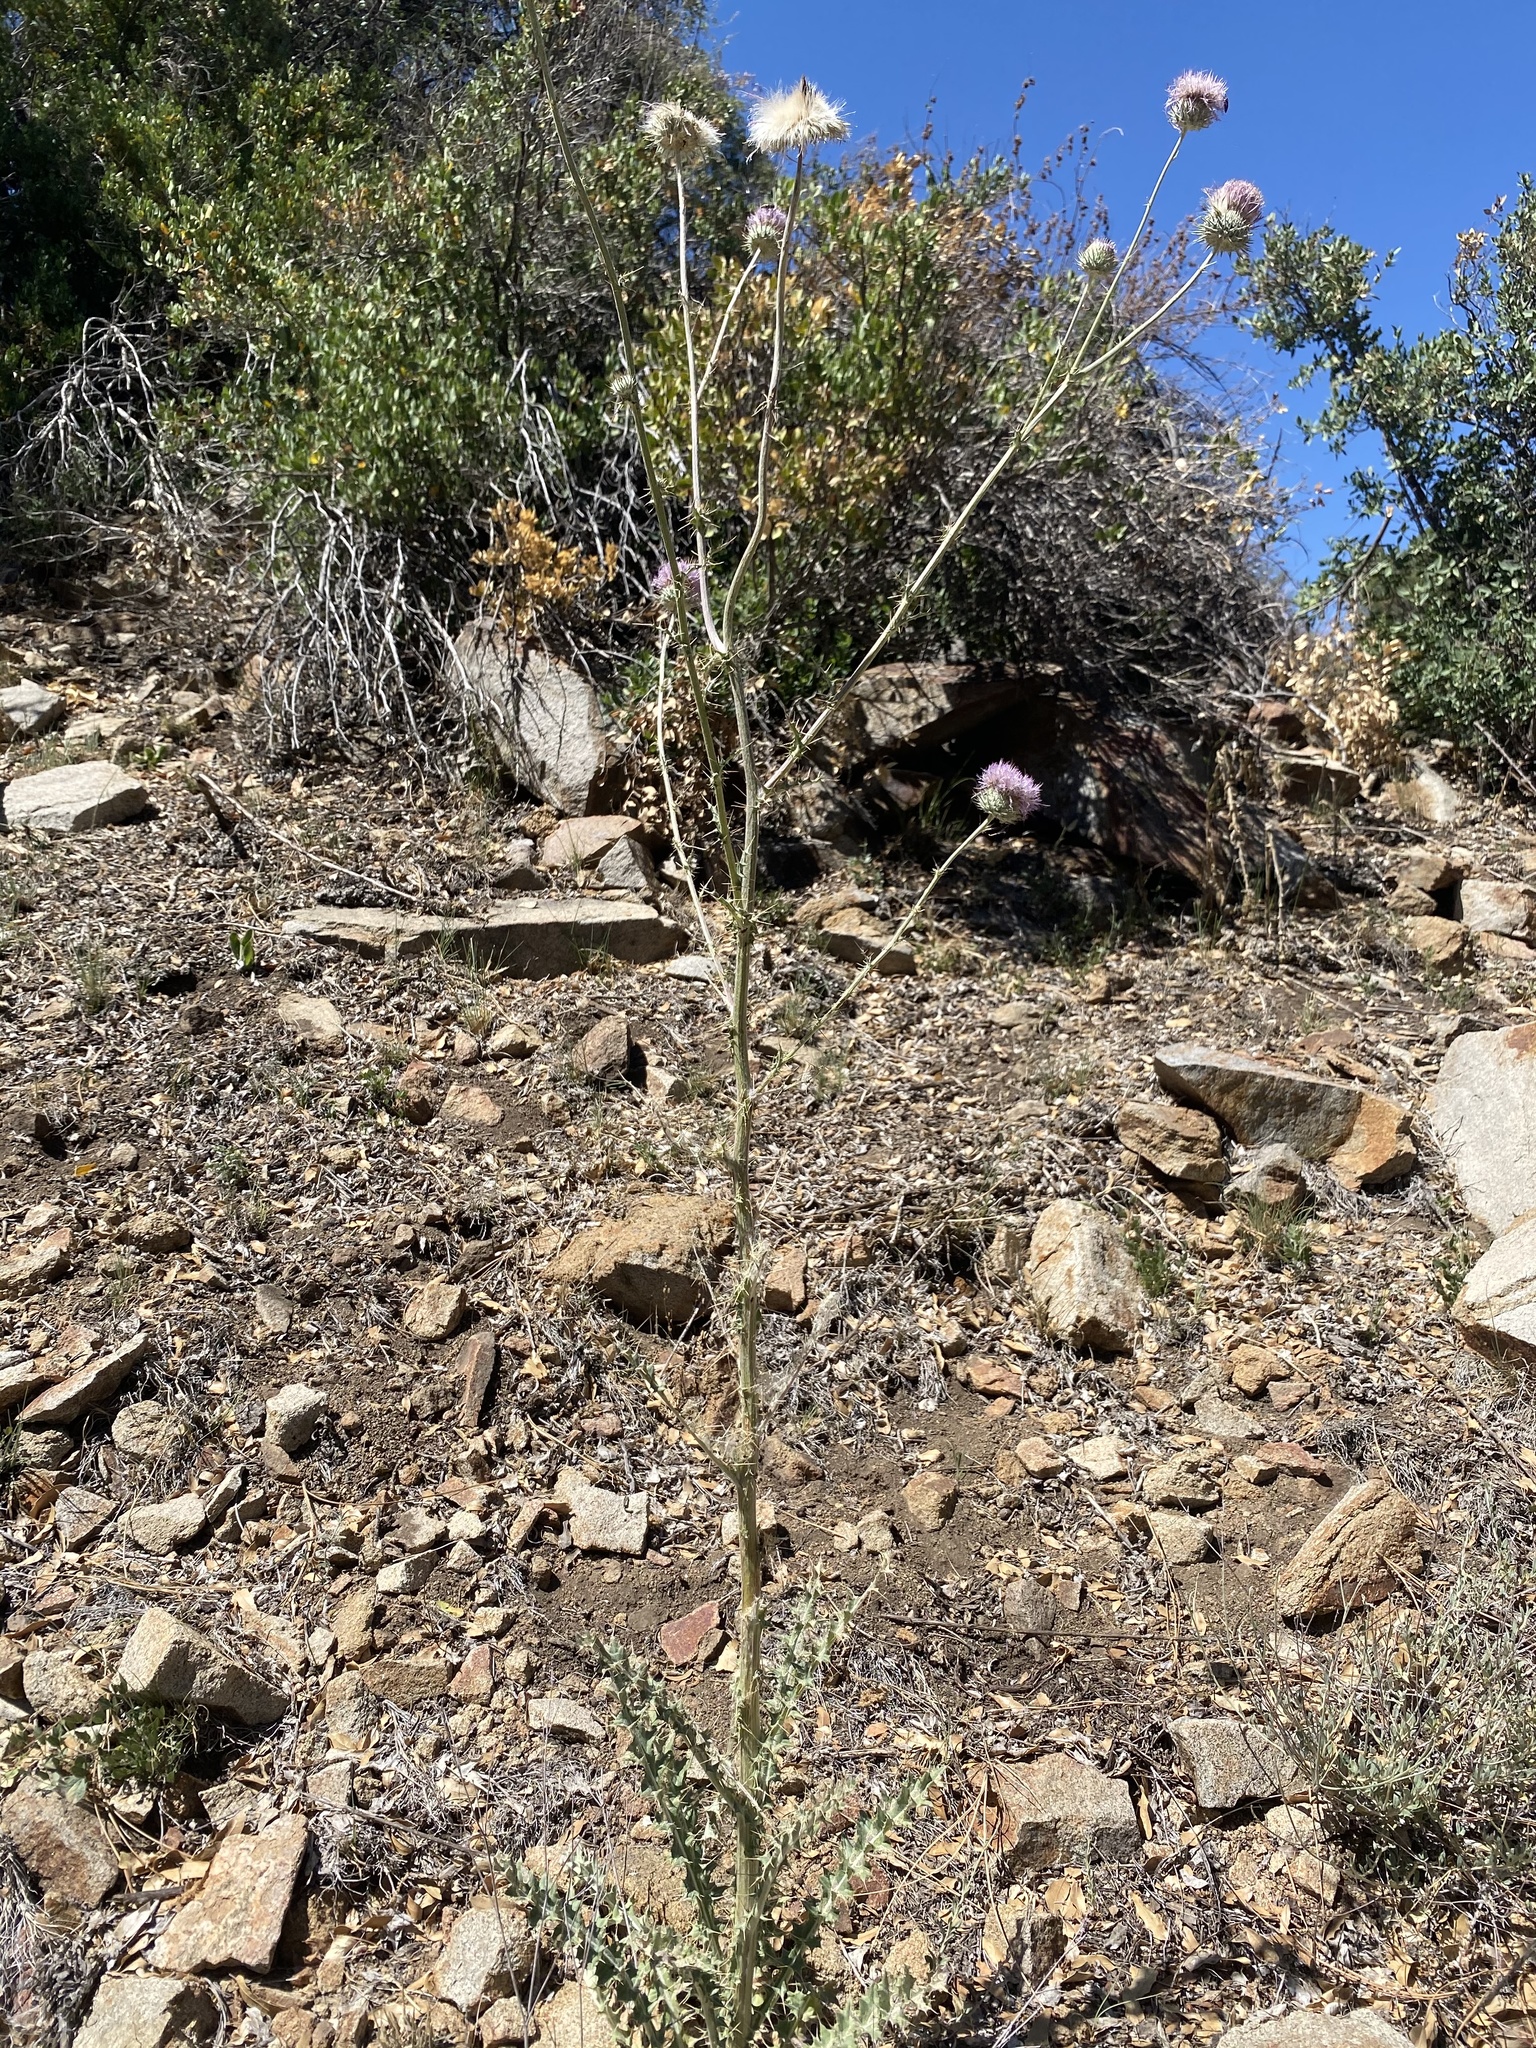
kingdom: Plantae
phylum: Tracheophyta
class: Magnoliopsida
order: Asterales
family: Asteraceae
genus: Cirsium
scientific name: Cirsium neomexicanum
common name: New mexico thistle
